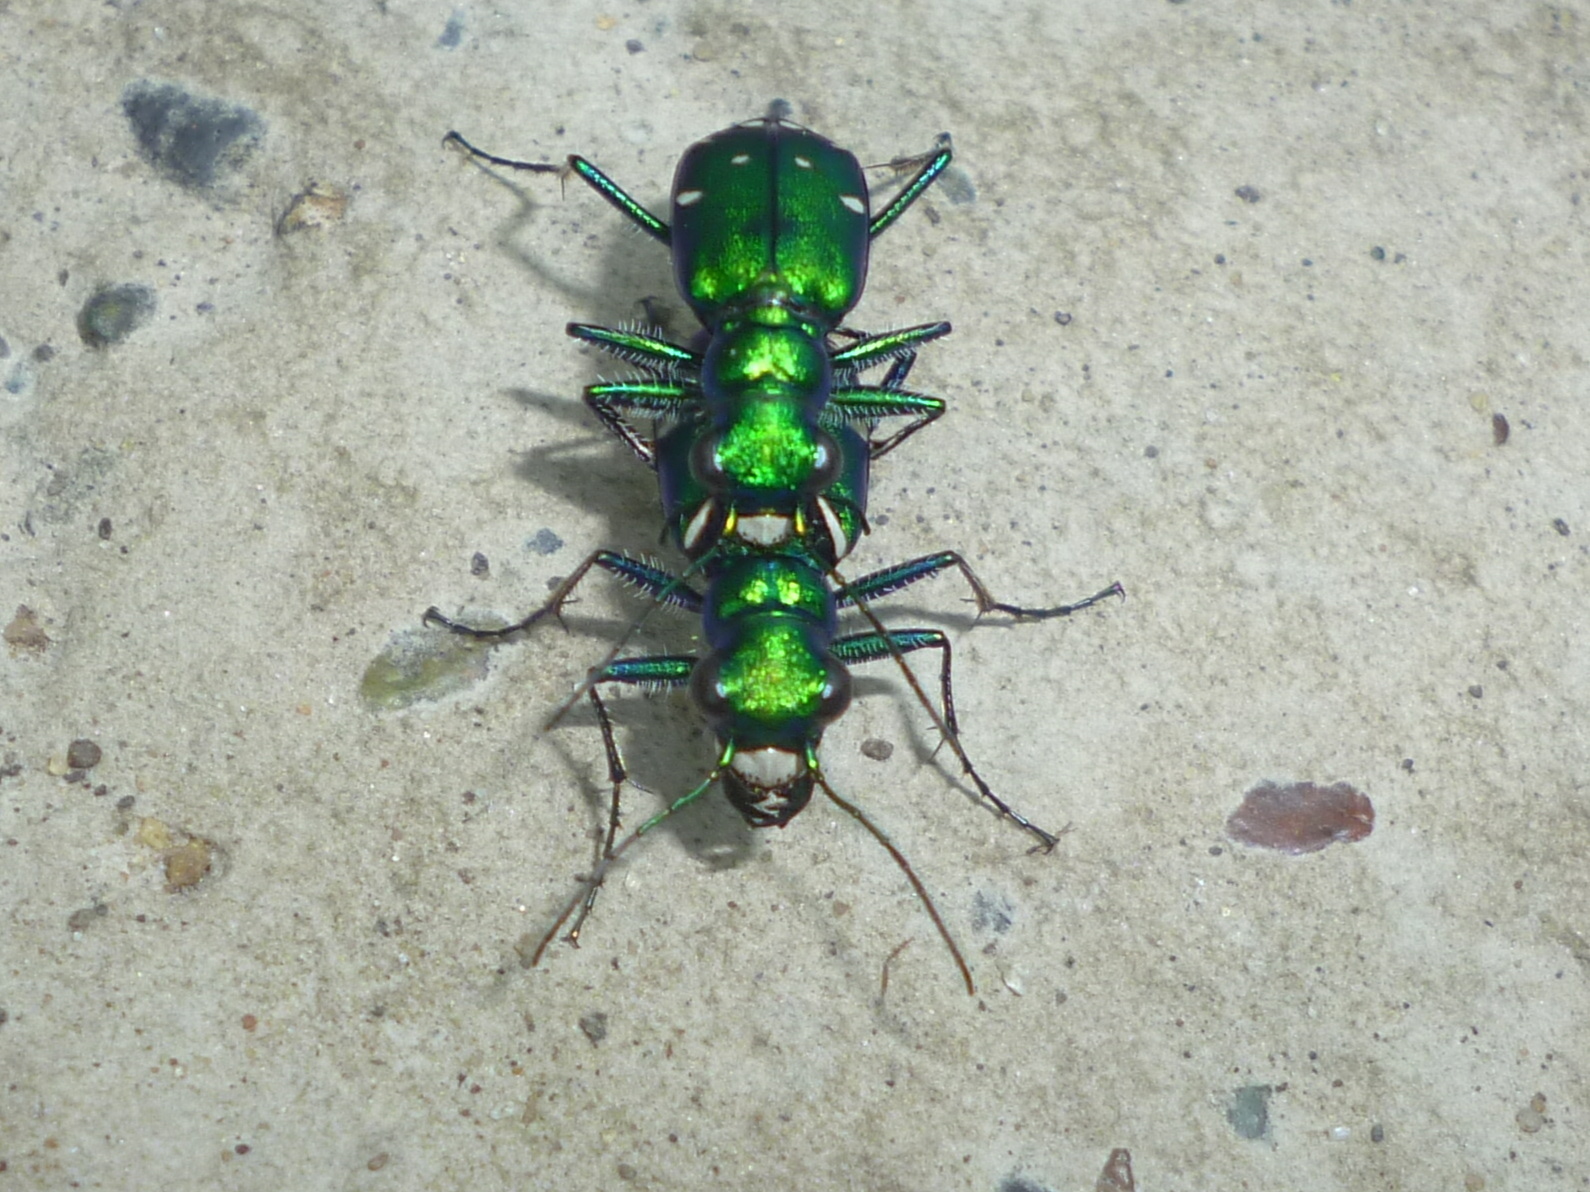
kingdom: Animalia
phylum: Arthropoda
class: Insecta
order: Coleoptera
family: Carabidae
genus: Cicindela
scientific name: Cicindela sexguttata
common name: Six-spotted tiger beetle
